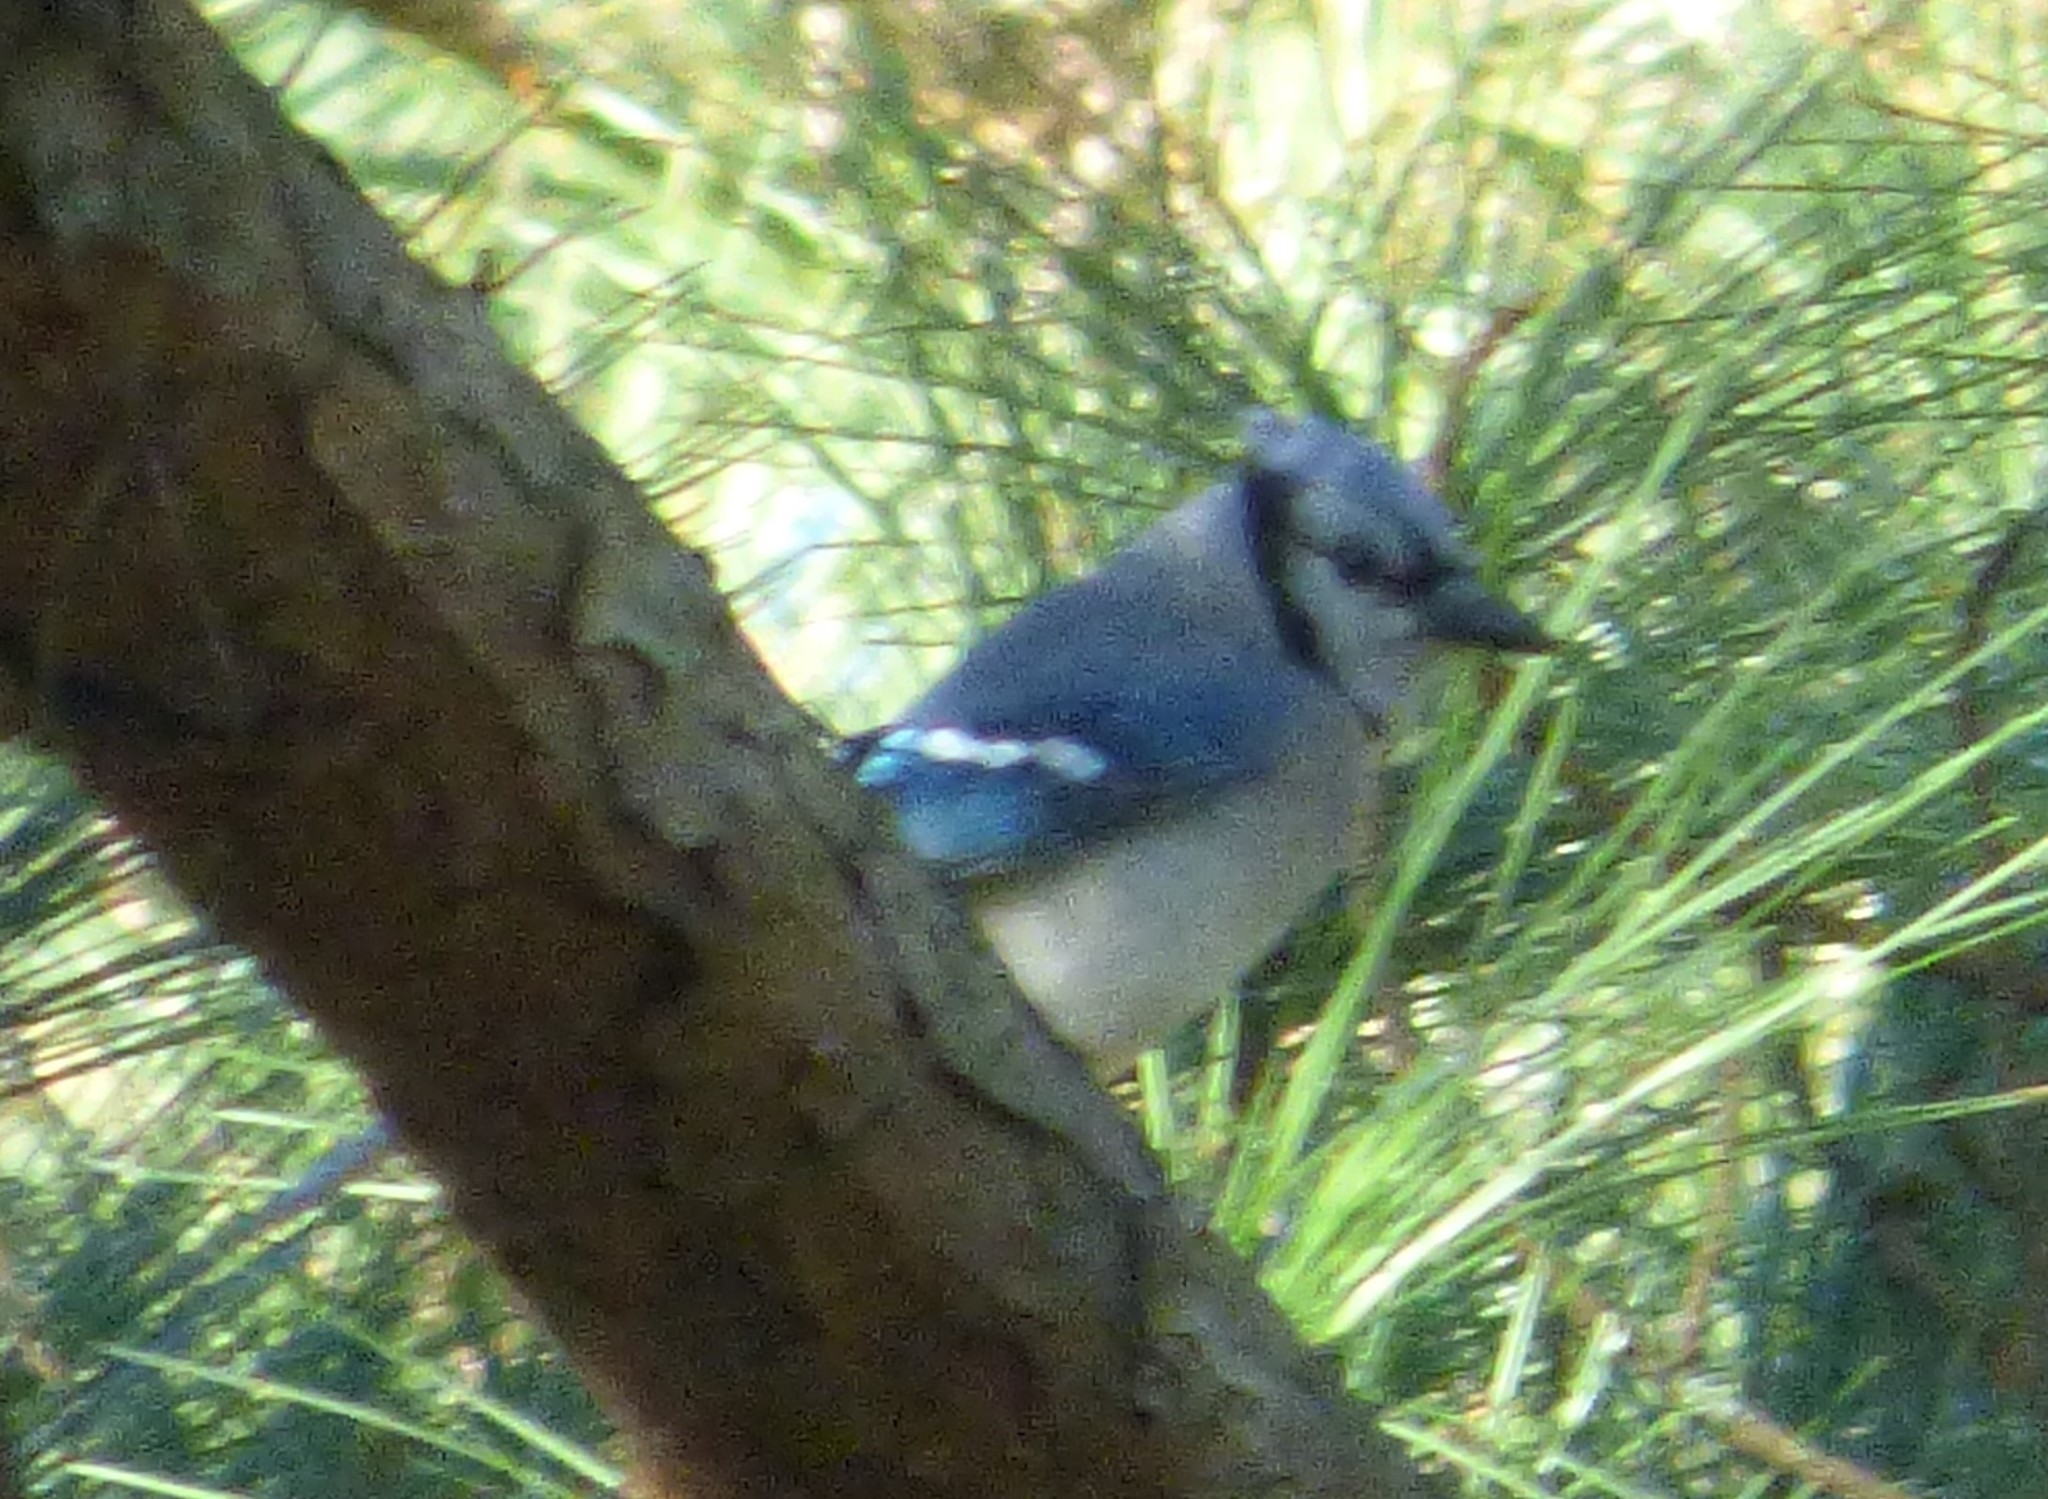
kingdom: Animalia
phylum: Chordata
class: Aves
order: Passeriformes
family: Corvidae
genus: Cyanocitta
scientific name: Cyanocitta cristata
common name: Blue jay
